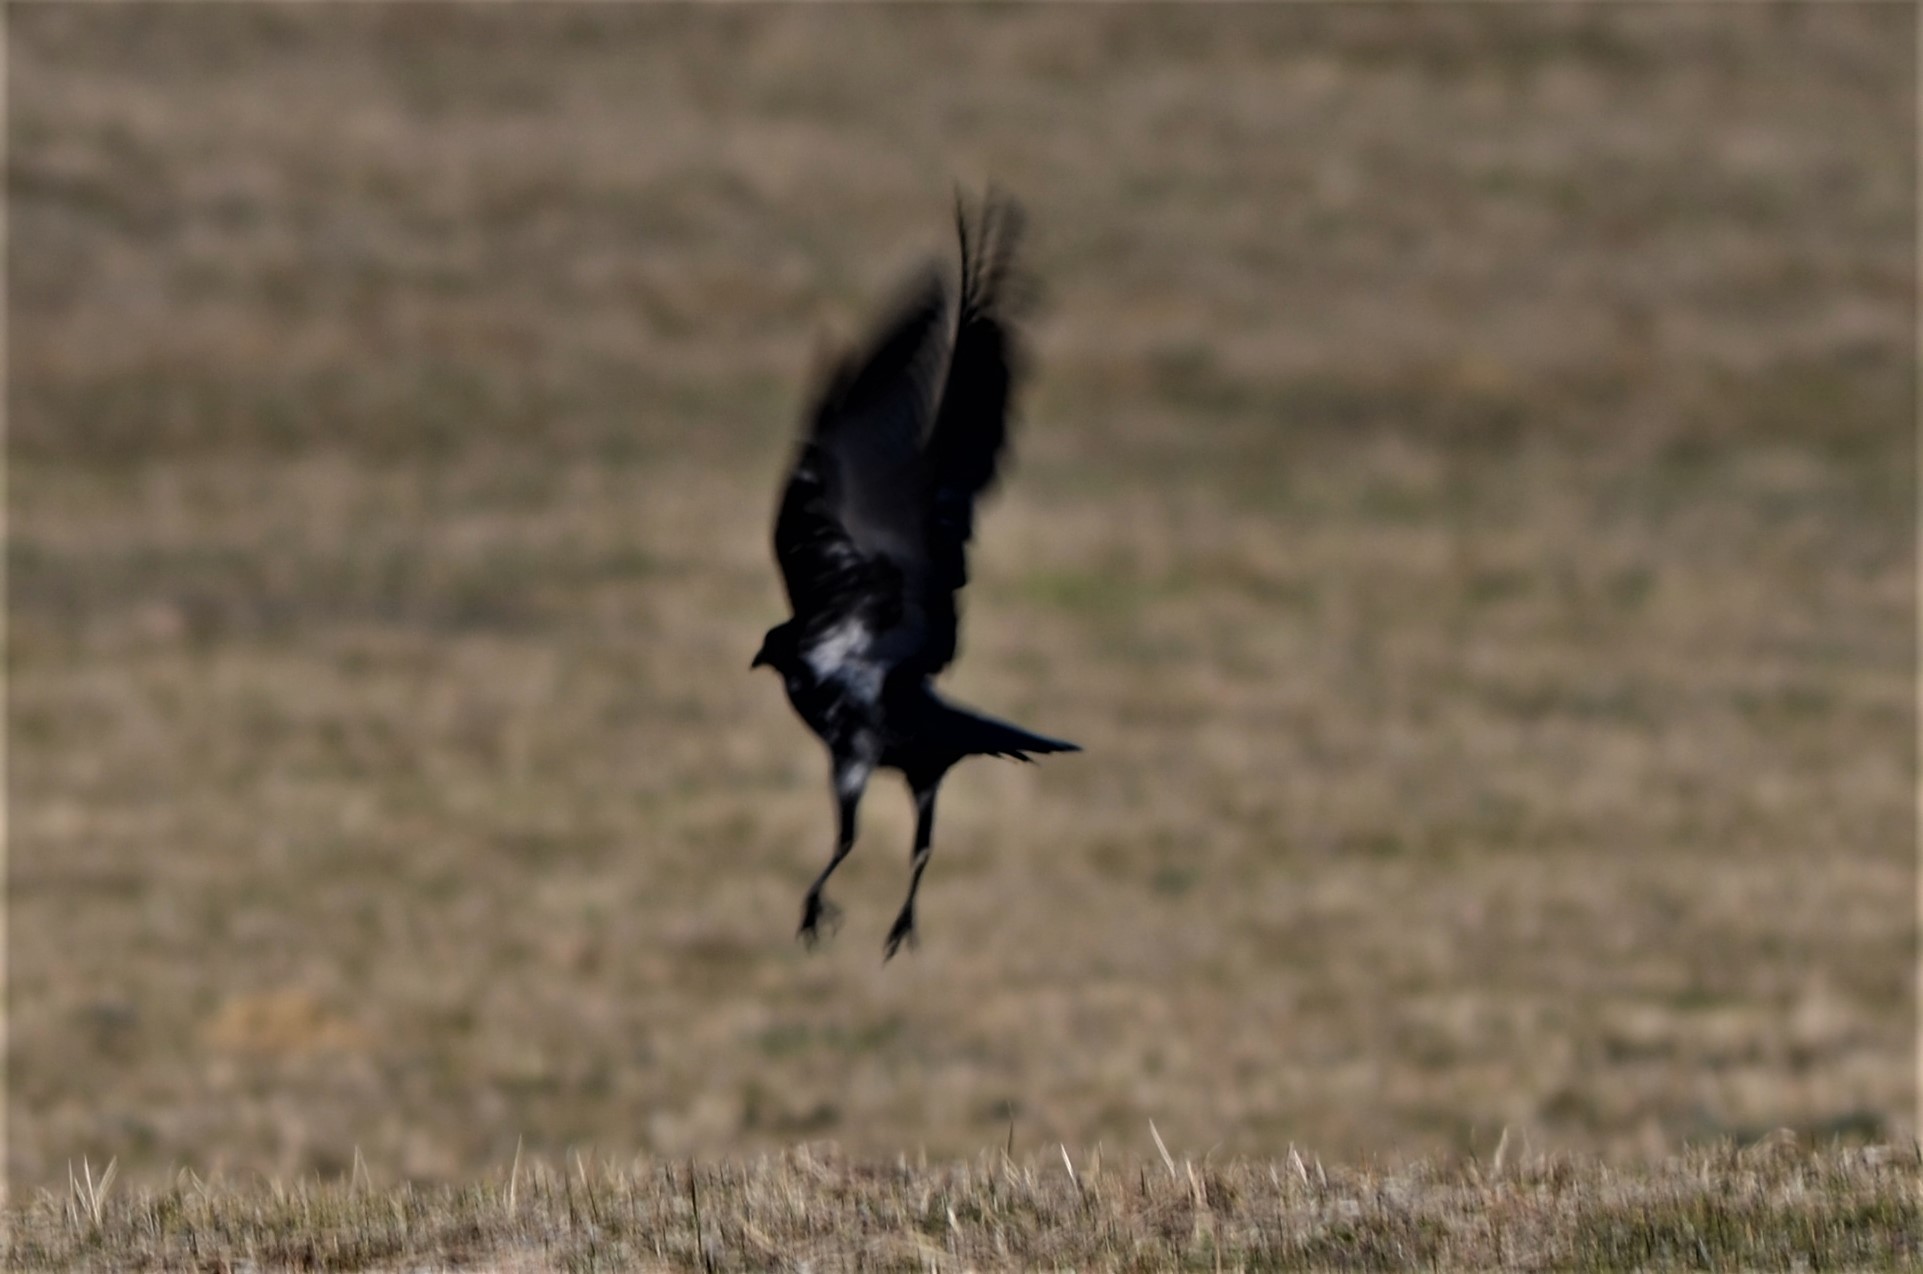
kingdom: Animalia
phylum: Chordata
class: Aves
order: Passeriformes
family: Corvidae
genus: Corvus
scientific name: Corvus
